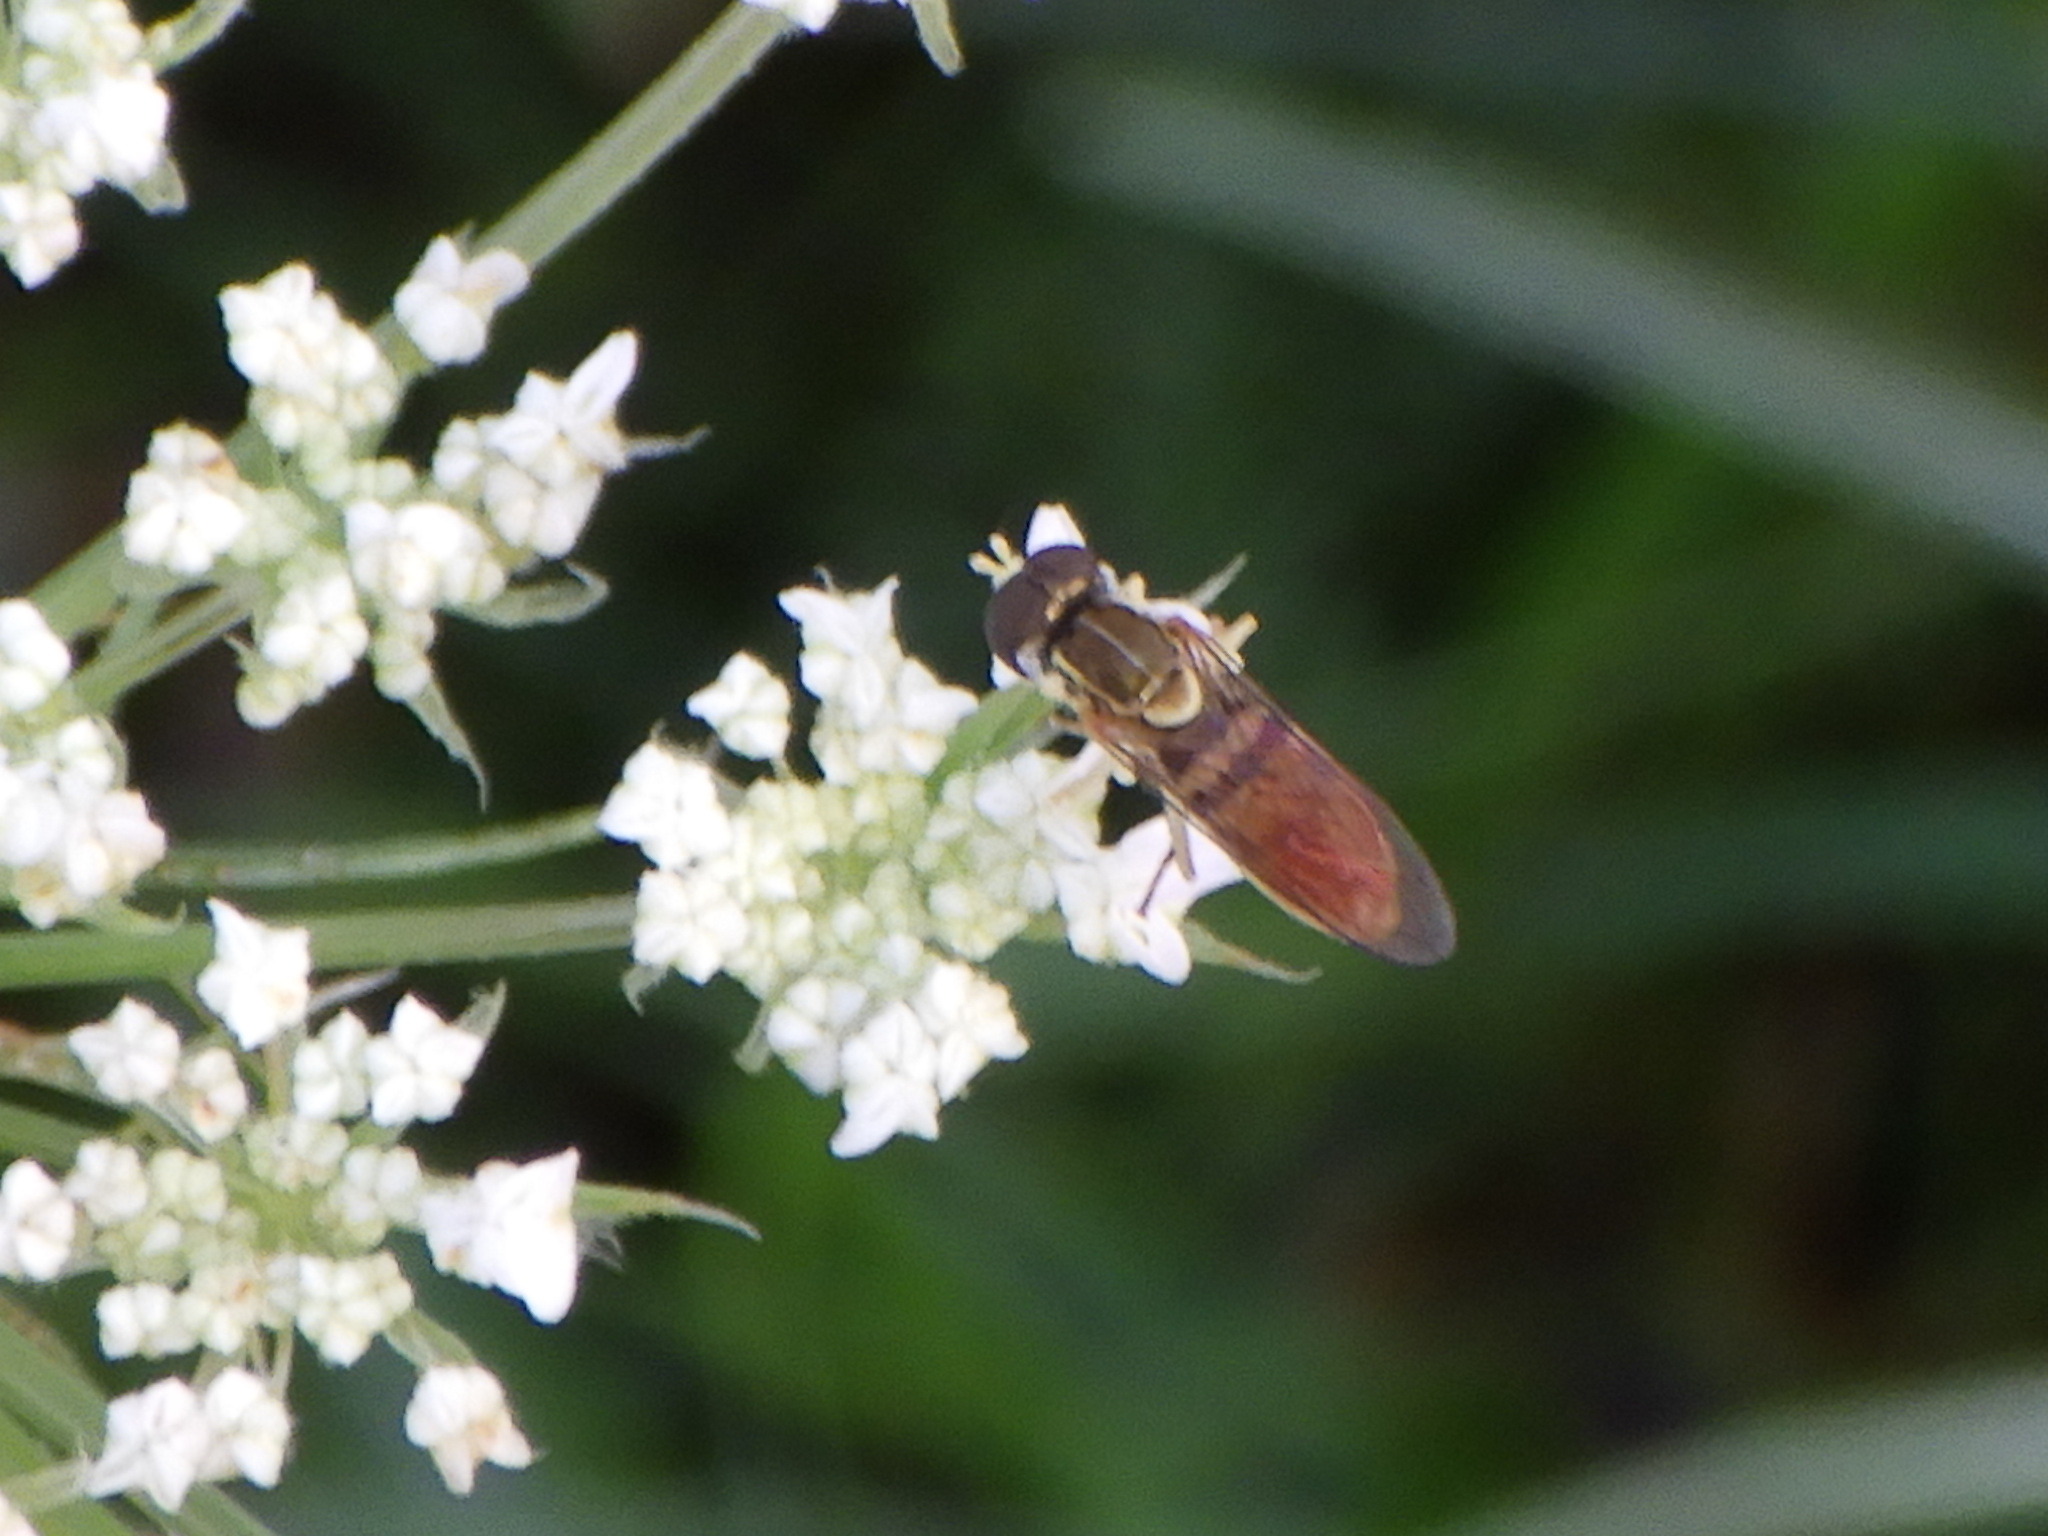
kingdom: Animalia
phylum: Arthropoda
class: Insecta
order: Diptera
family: Syrphidae
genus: Toxomerus
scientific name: Toxomerus marginatus
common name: Syrphid fly
